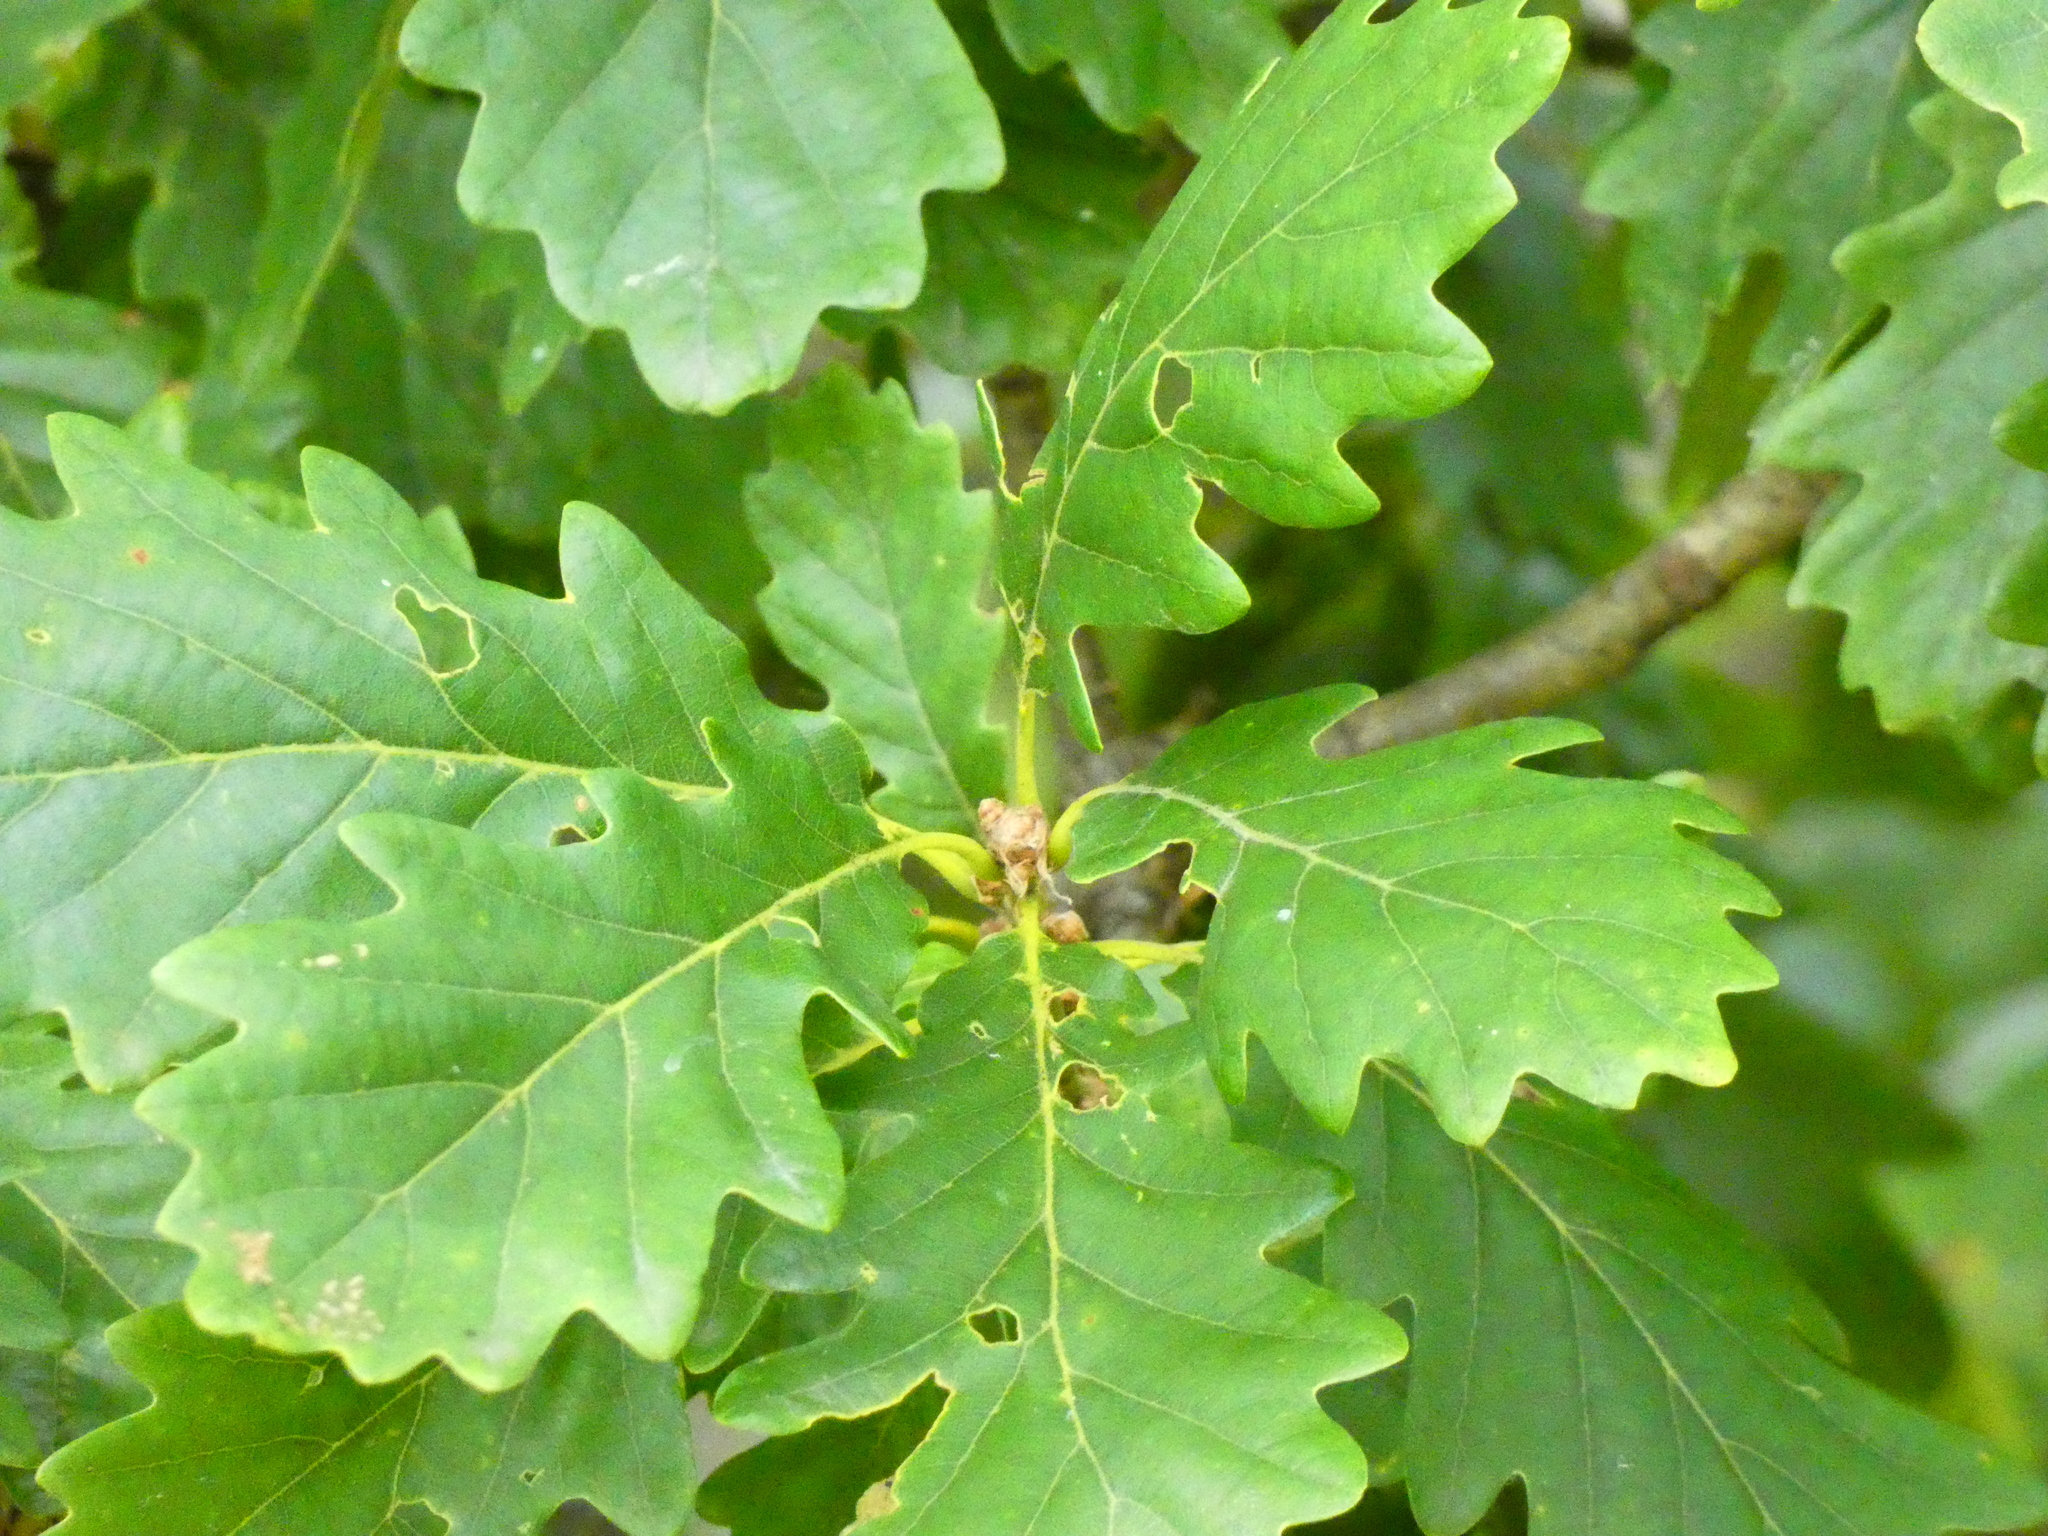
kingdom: Plantae
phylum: Tracheophyta
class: Magnoliopsida
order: Fagales
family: Fagaceae
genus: Quercus
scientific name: Quercus robur
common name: Pedunculate oak
